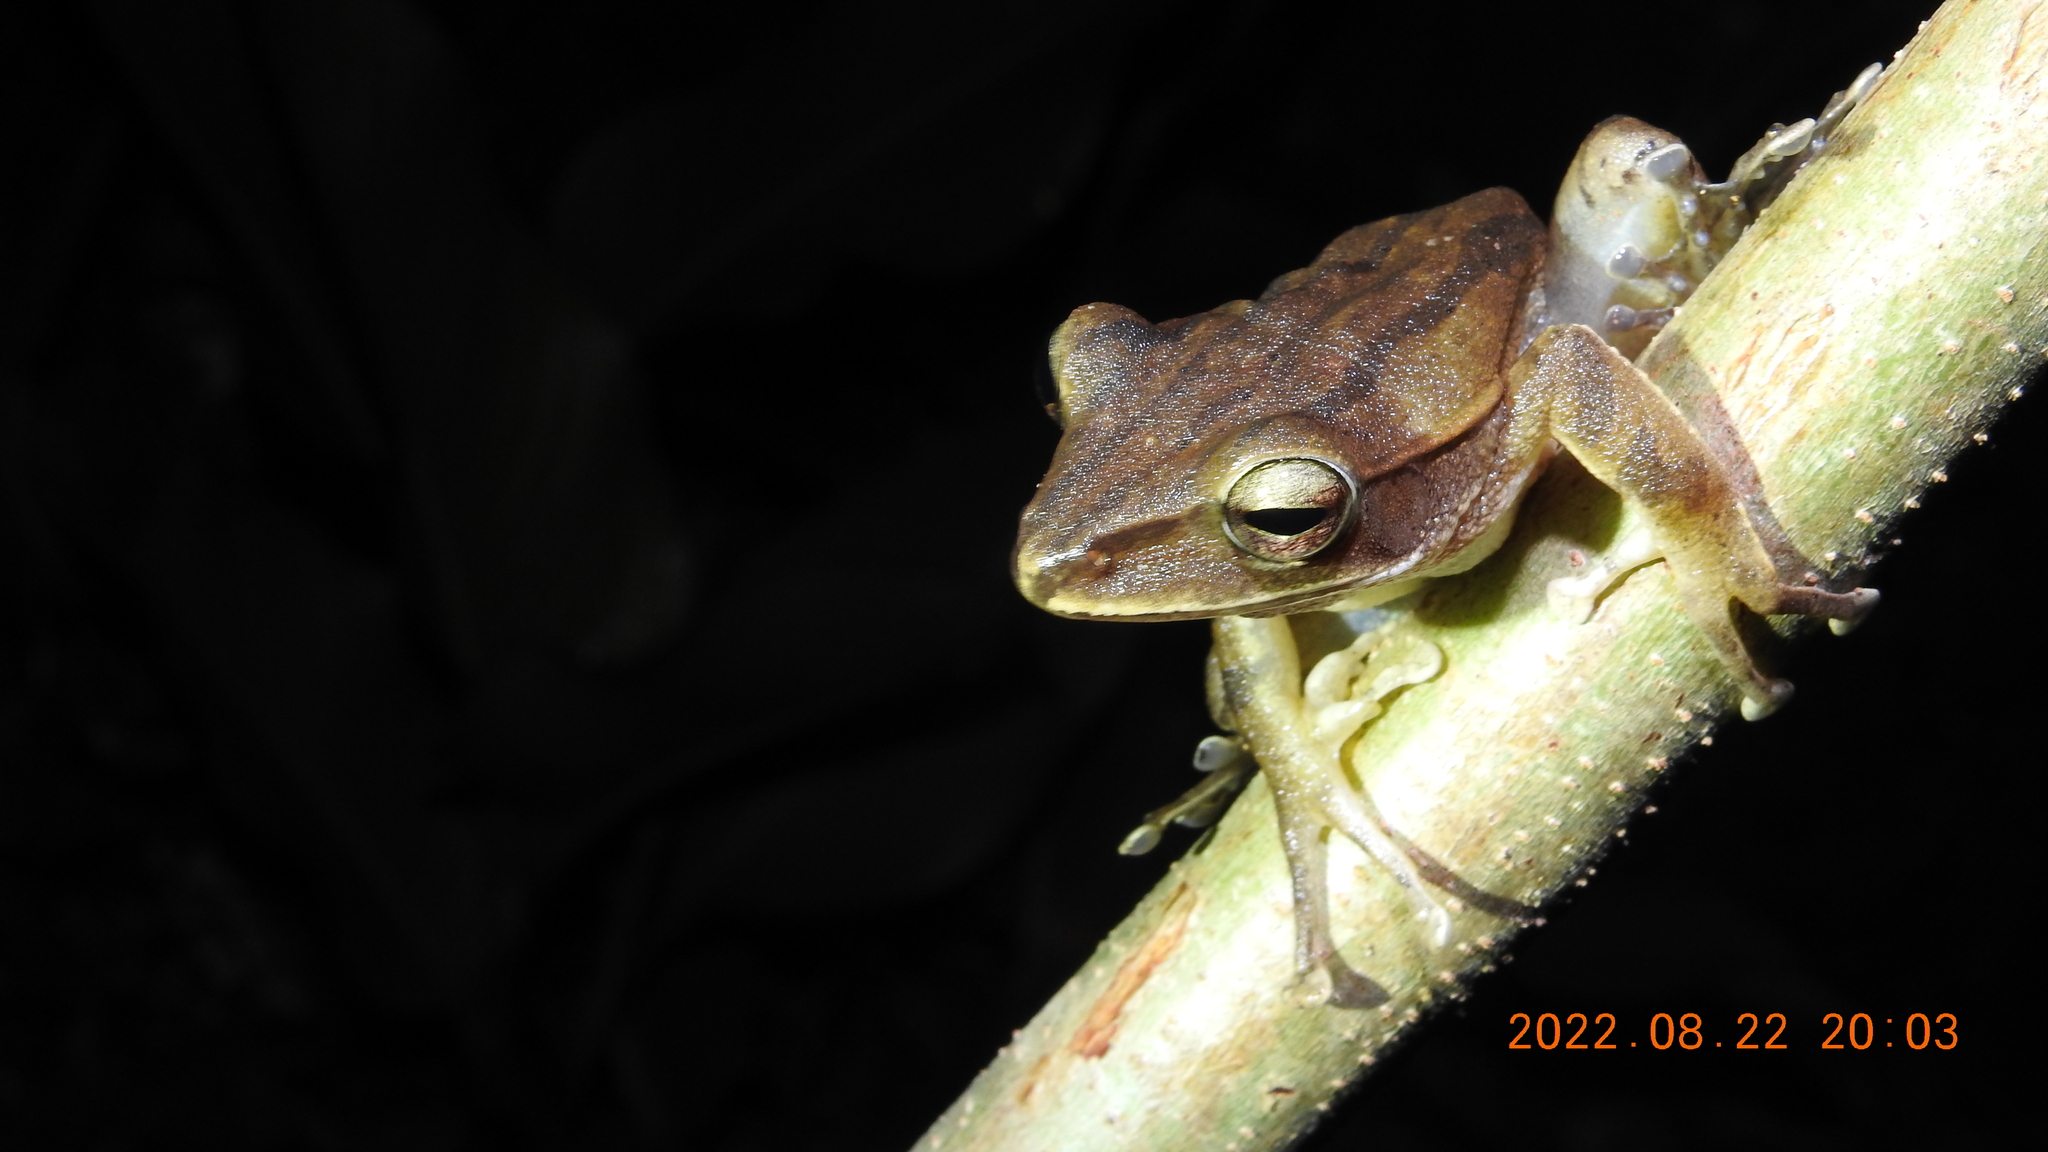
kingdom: Animalia
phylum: Chordata
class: Amphibia
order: Anura
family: Rhacophoridae
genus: Polypedates
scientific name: Polypedates braueri
